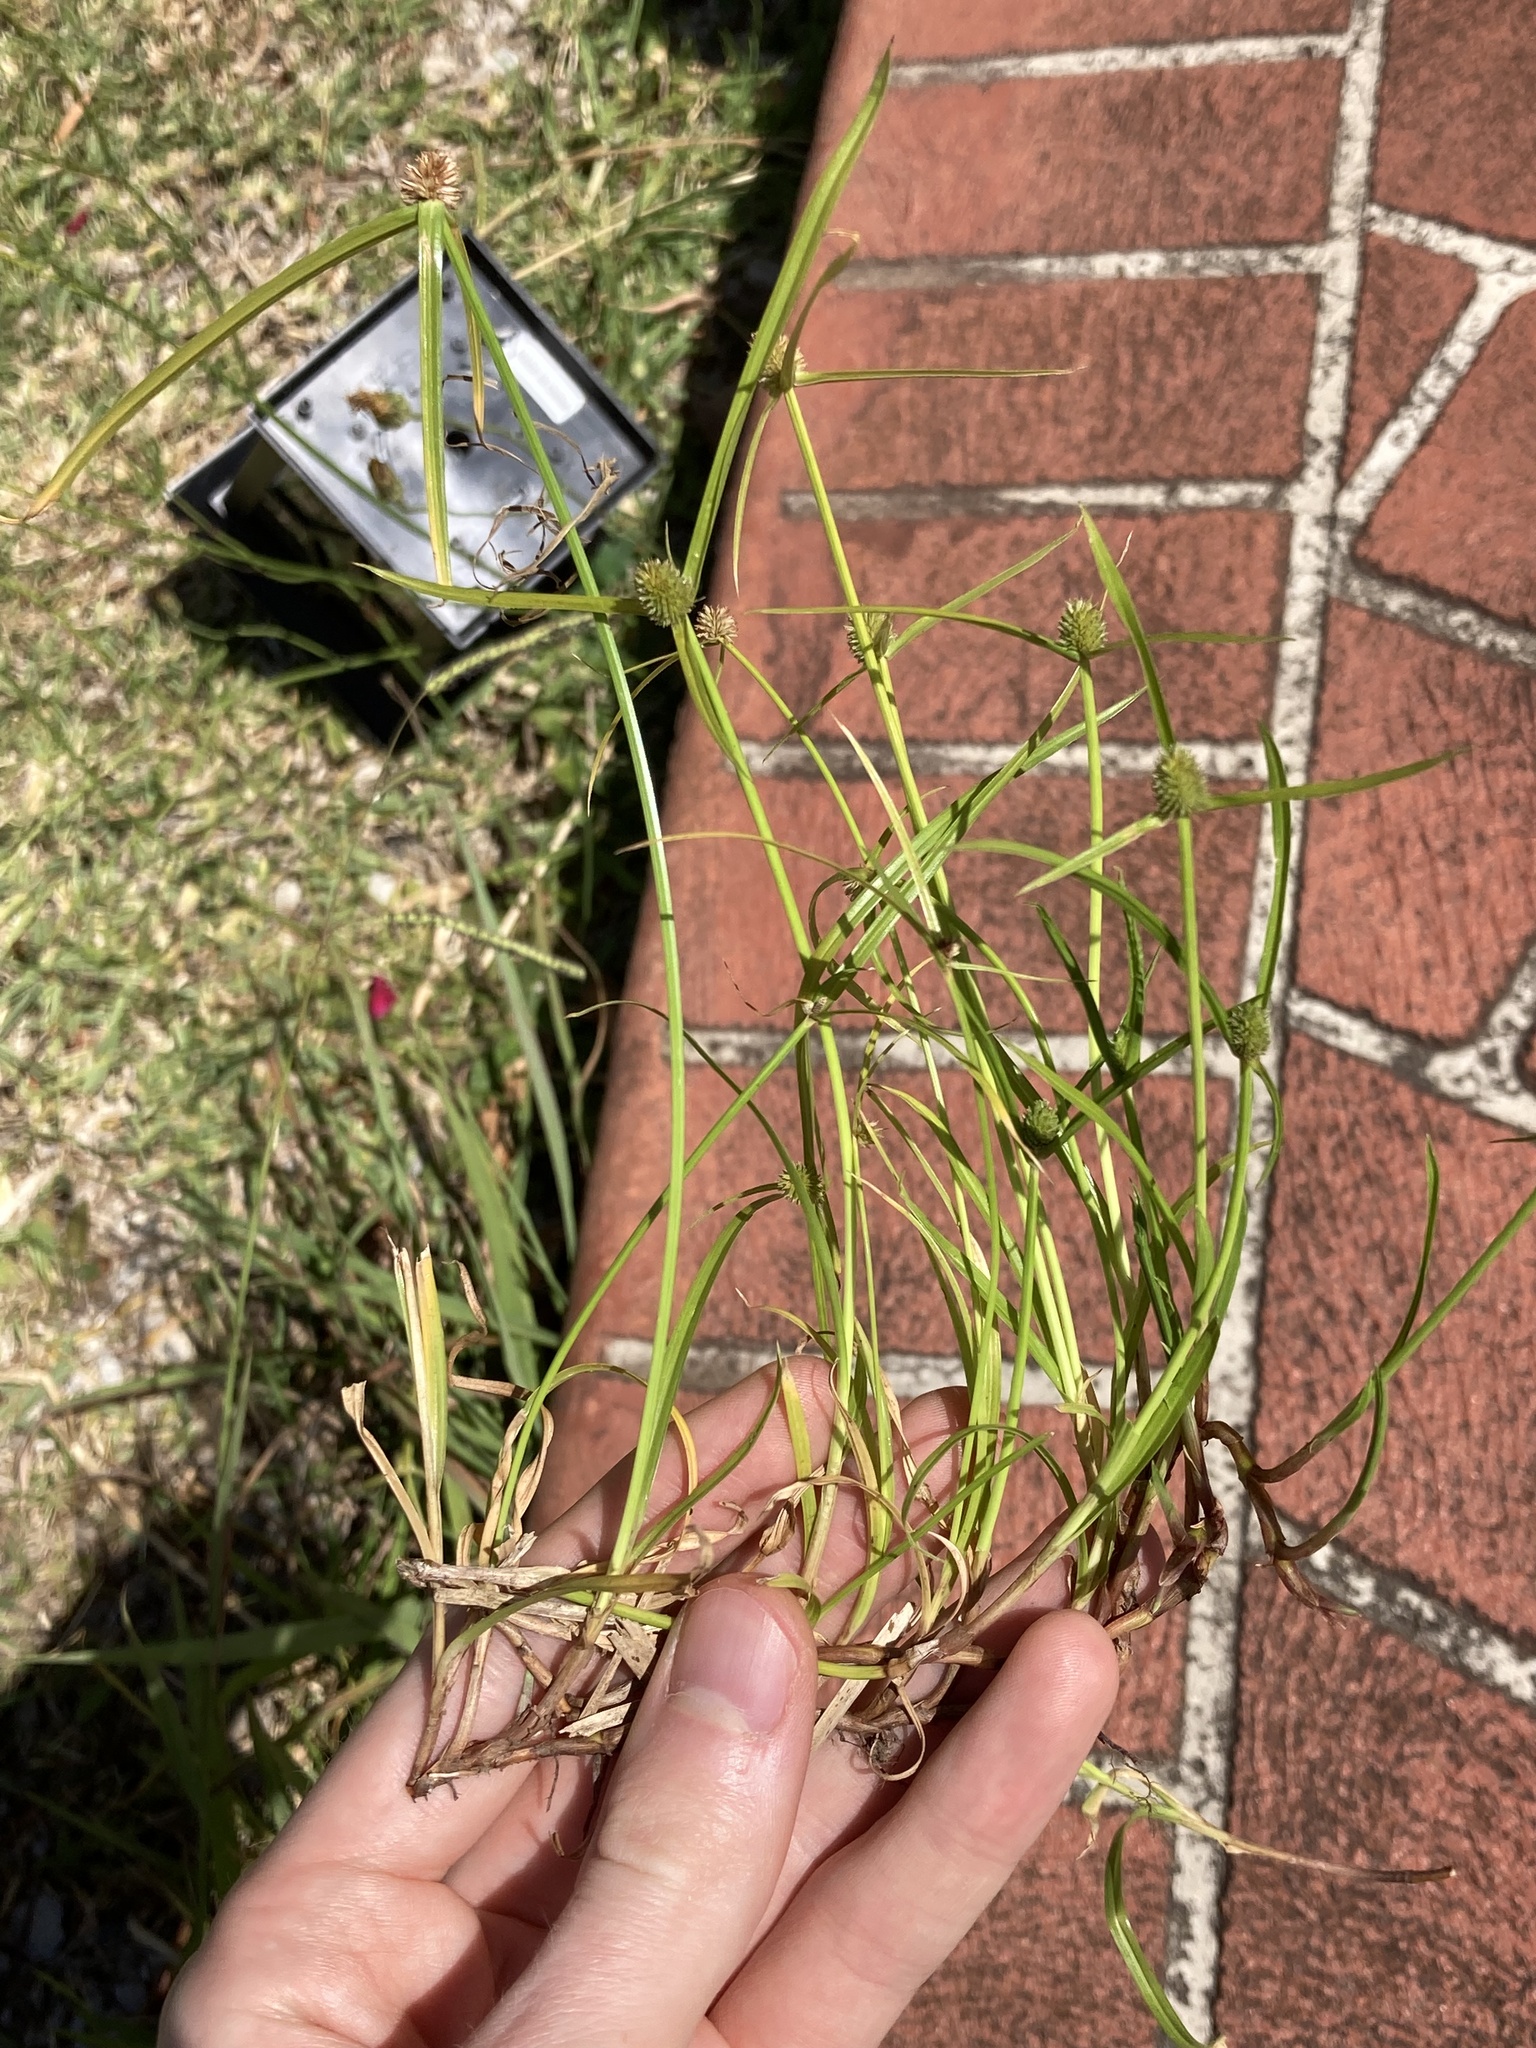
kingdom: Plantae
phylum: Tracheophyta
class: Liliopsida
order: Poales
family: Cyperaceae
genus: Cyperus
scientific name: Cyperus brevifolius
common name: Globe kyllinga
